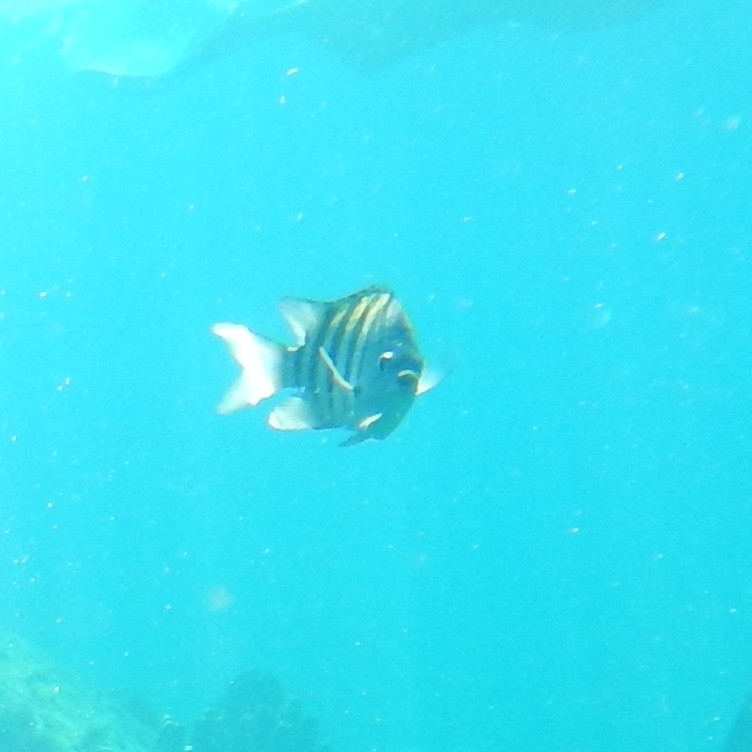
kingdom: Animalia
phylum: Chordata
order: Perciformes
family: Pomacentridae
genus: Abudefduf
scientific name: Abudefduf saxatilis
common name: Sergeant major
